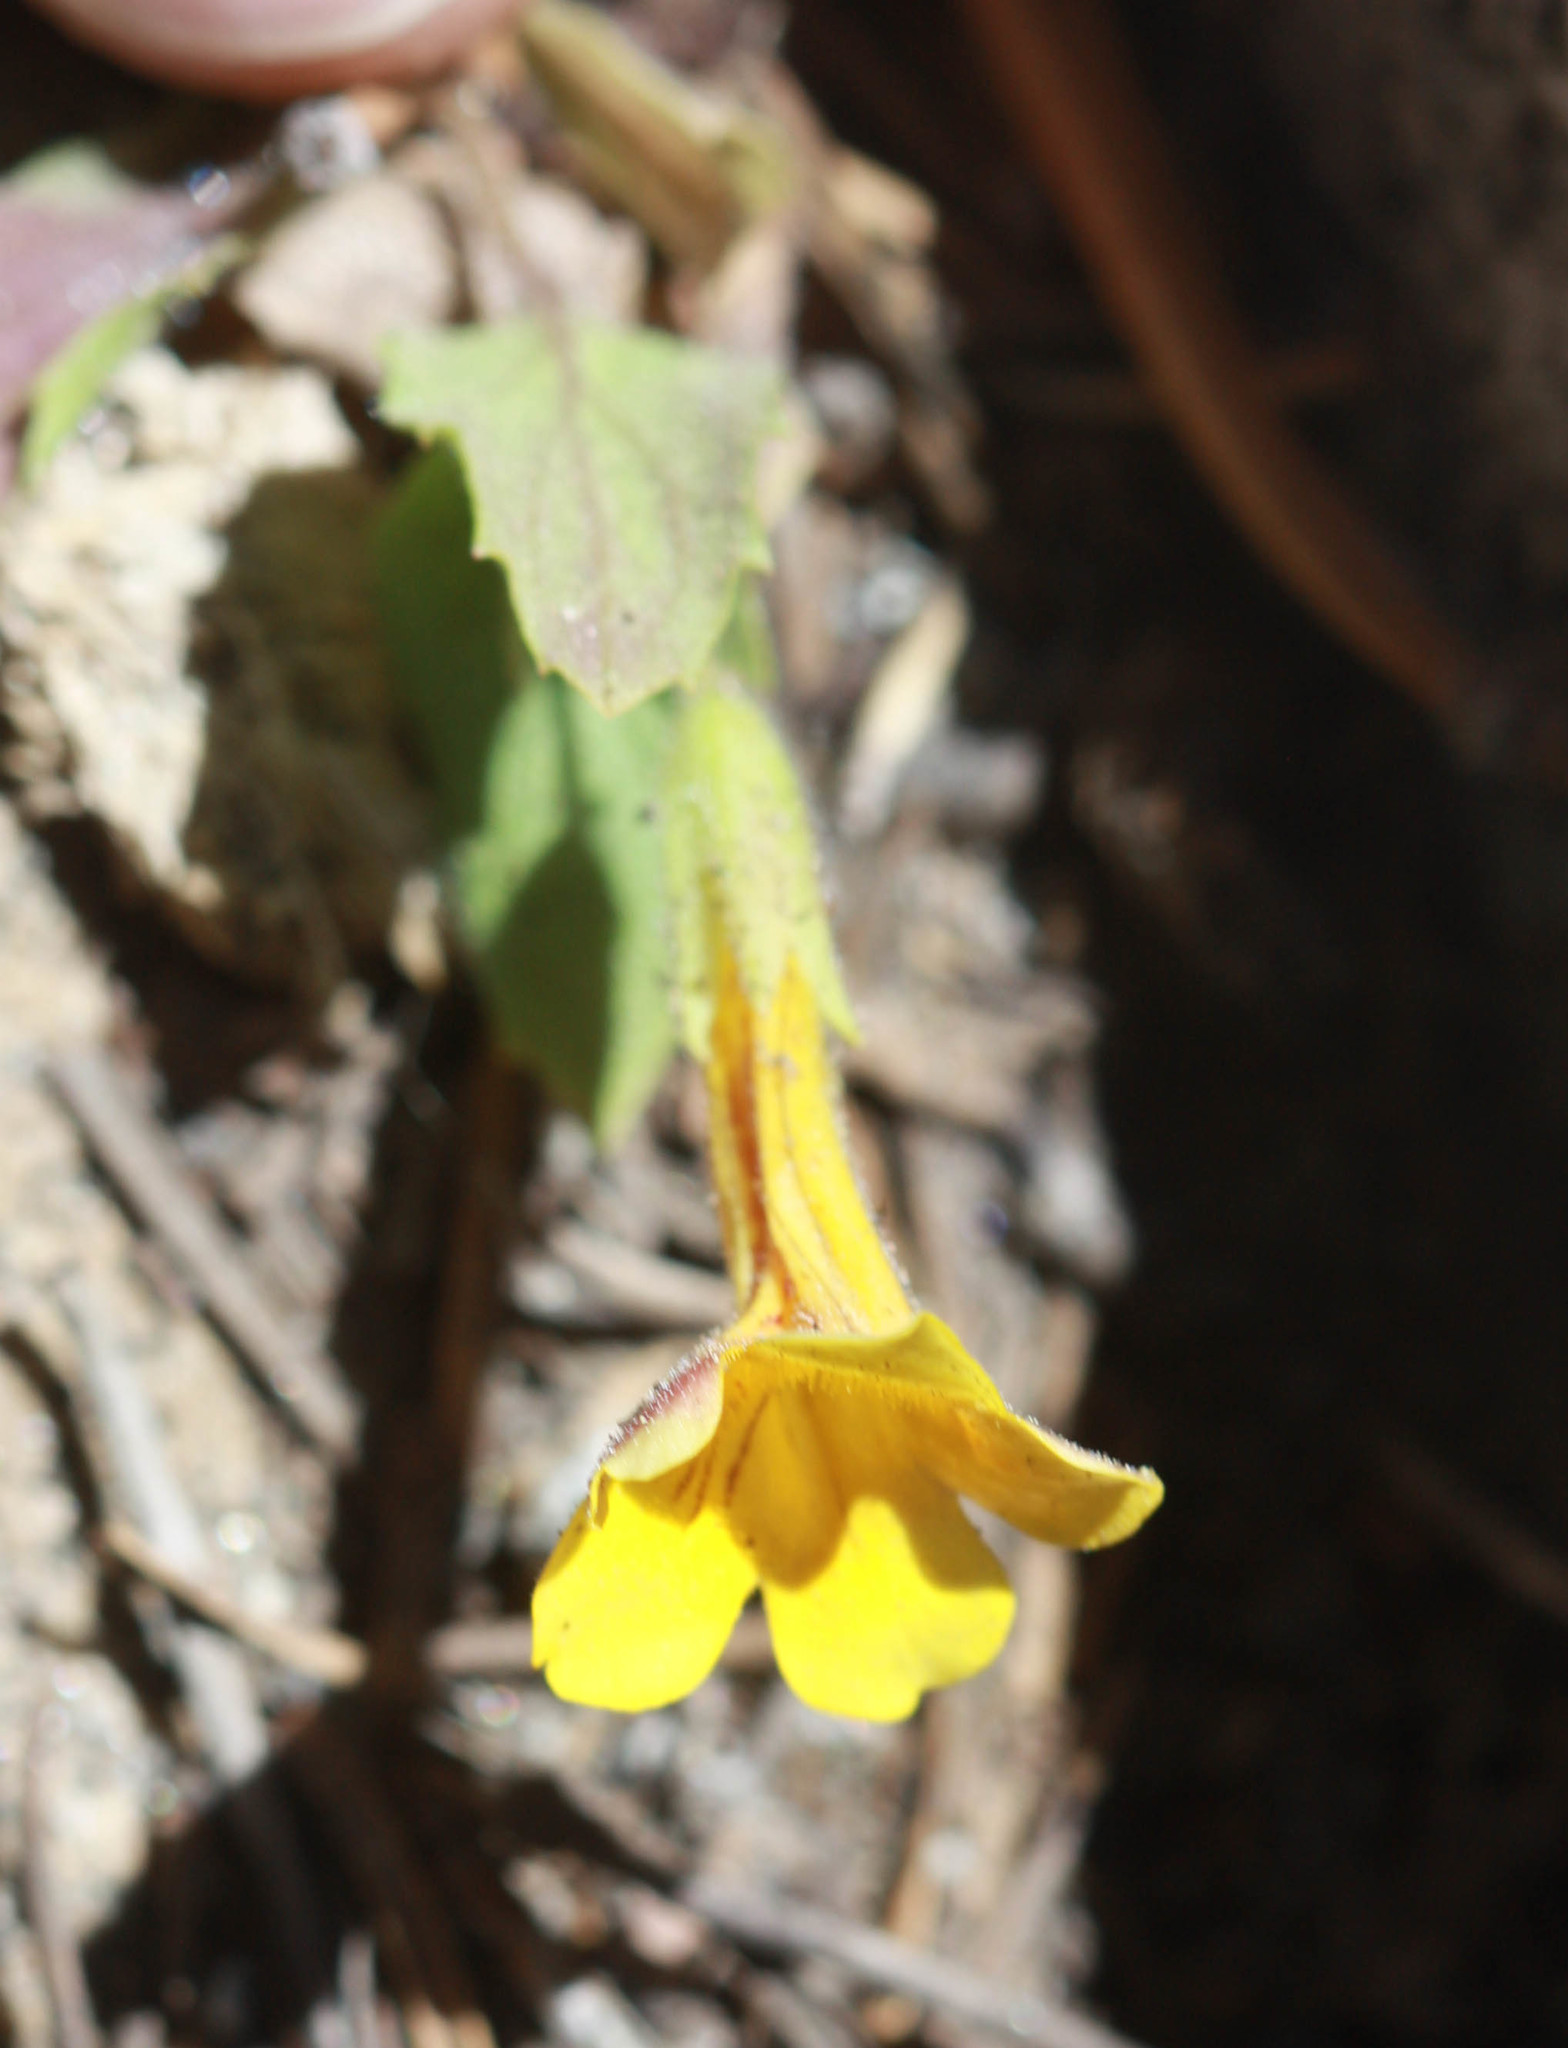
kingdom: Plantae
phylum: Tracheophyta
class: Magnoliopsida
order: Lamiales
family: Phrymaceae
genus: Erythranthe
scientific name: Erythranthe moschata
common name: Muskflower
